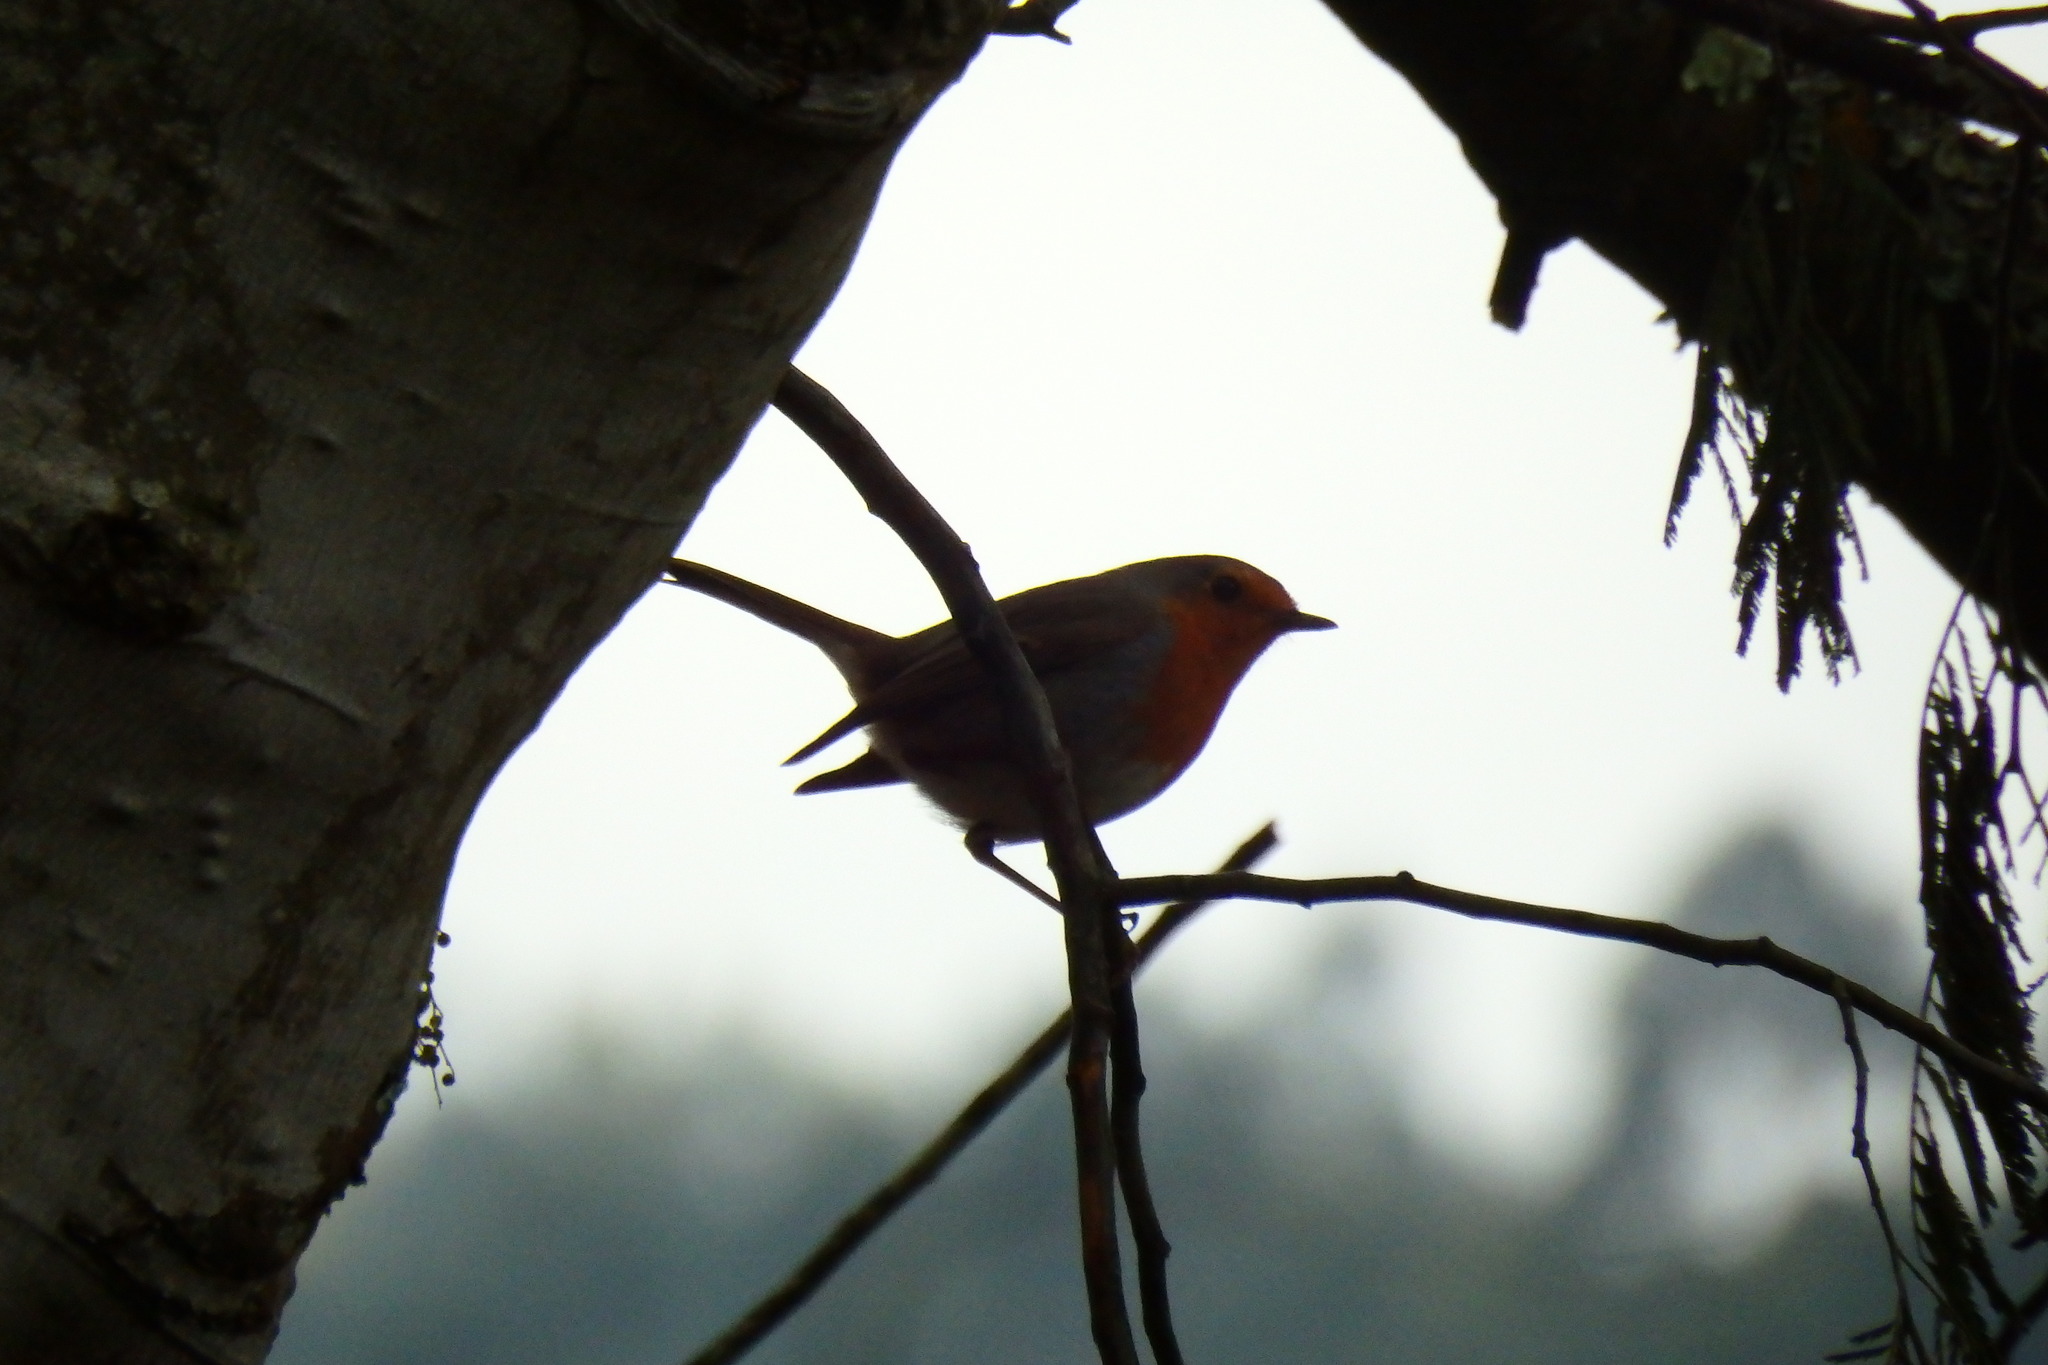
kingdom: Animalia
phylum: Chordata
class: Aves
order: Passeriformes
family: Muscicapidae
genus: Erithacus
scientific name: Erithacus rubecula
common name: European robin
